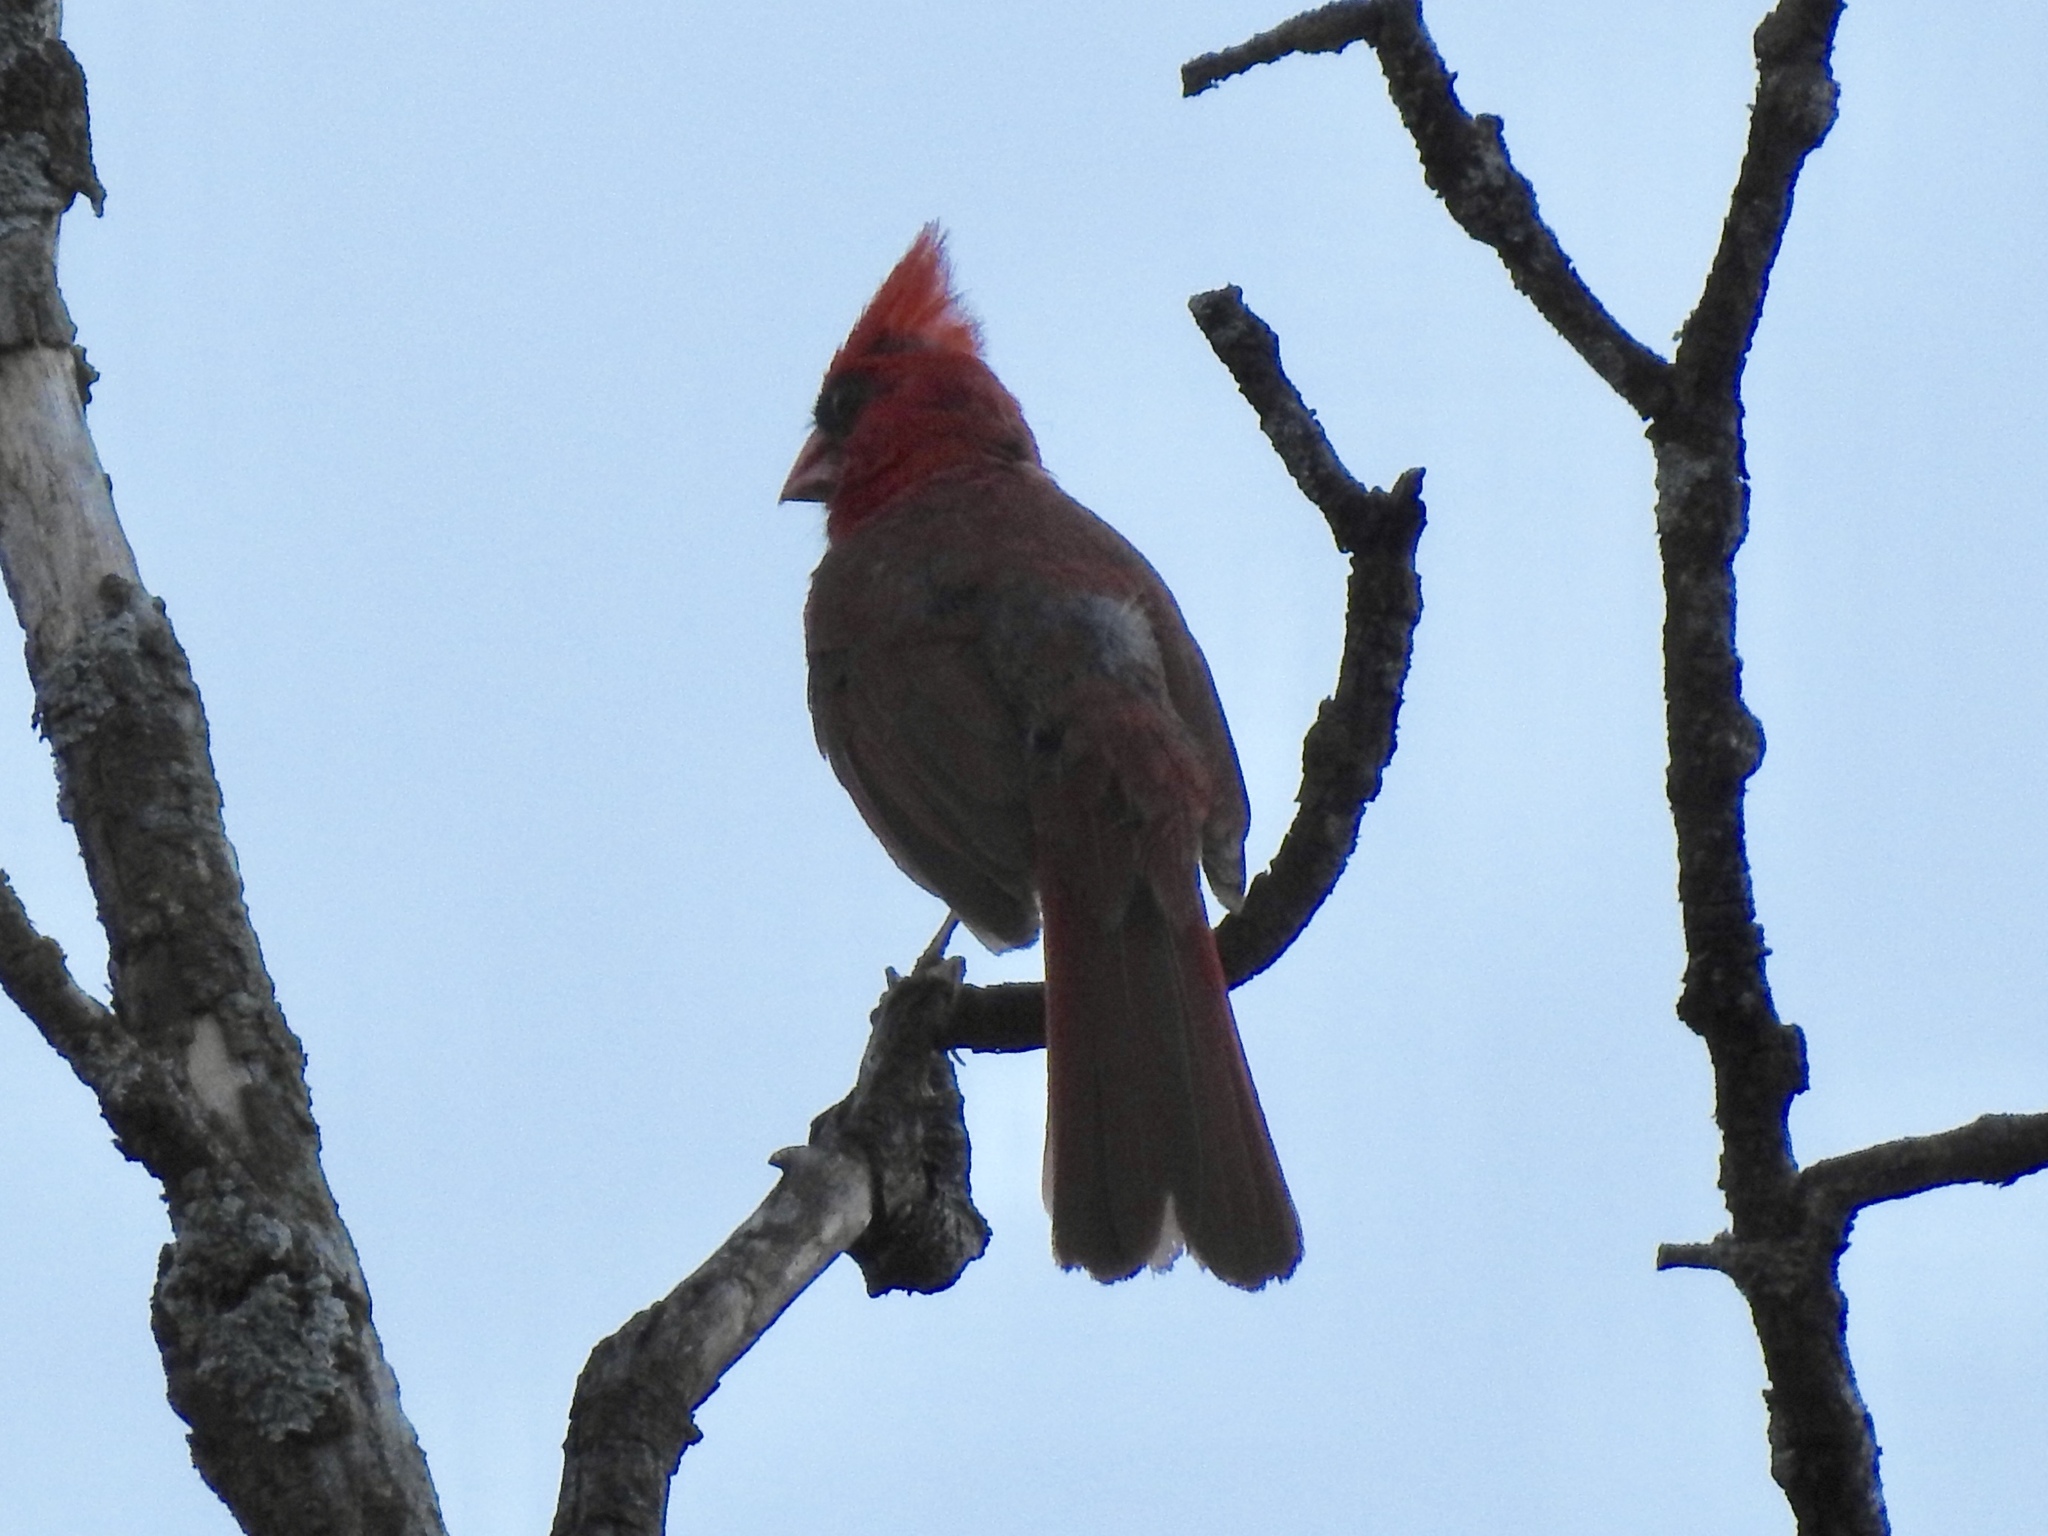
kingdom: Animalia
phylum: Chordata
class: Aves
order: Passeriformes
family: Cardinalidae
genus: Cardinalis
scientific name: Cardinalis cardinalis
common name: Northern cardinal
